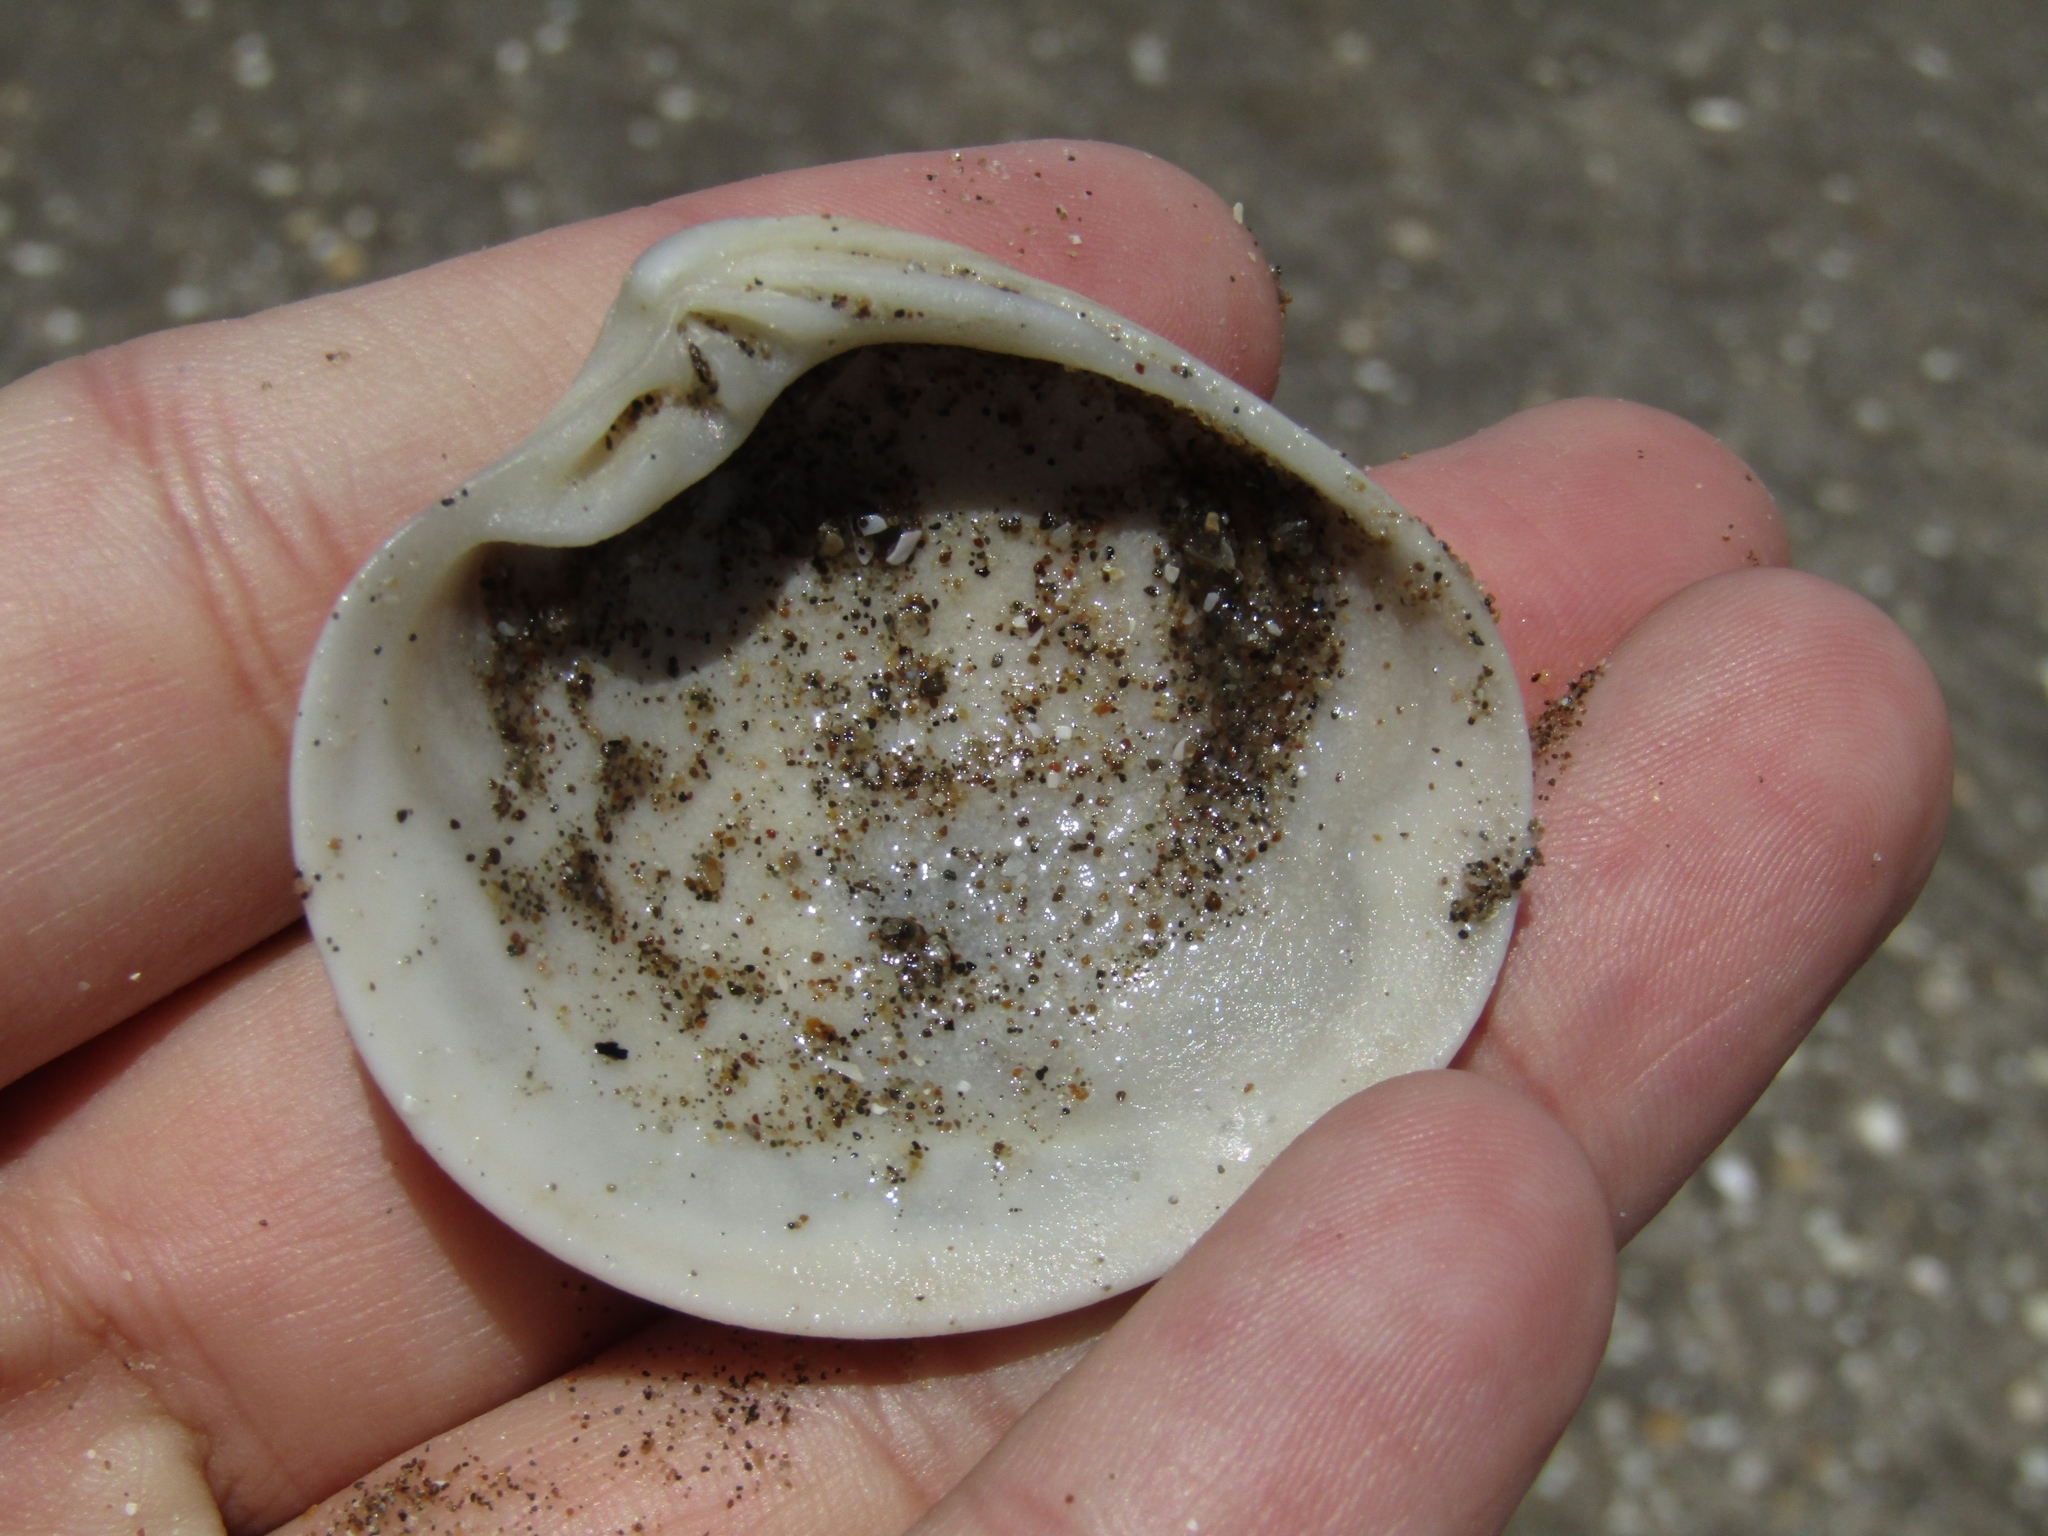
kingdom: Animalia
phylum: Mollusca
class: Bivalvia
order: Venerida
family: Veneridae
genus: Eucallista
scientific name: Eucallista purpurata
